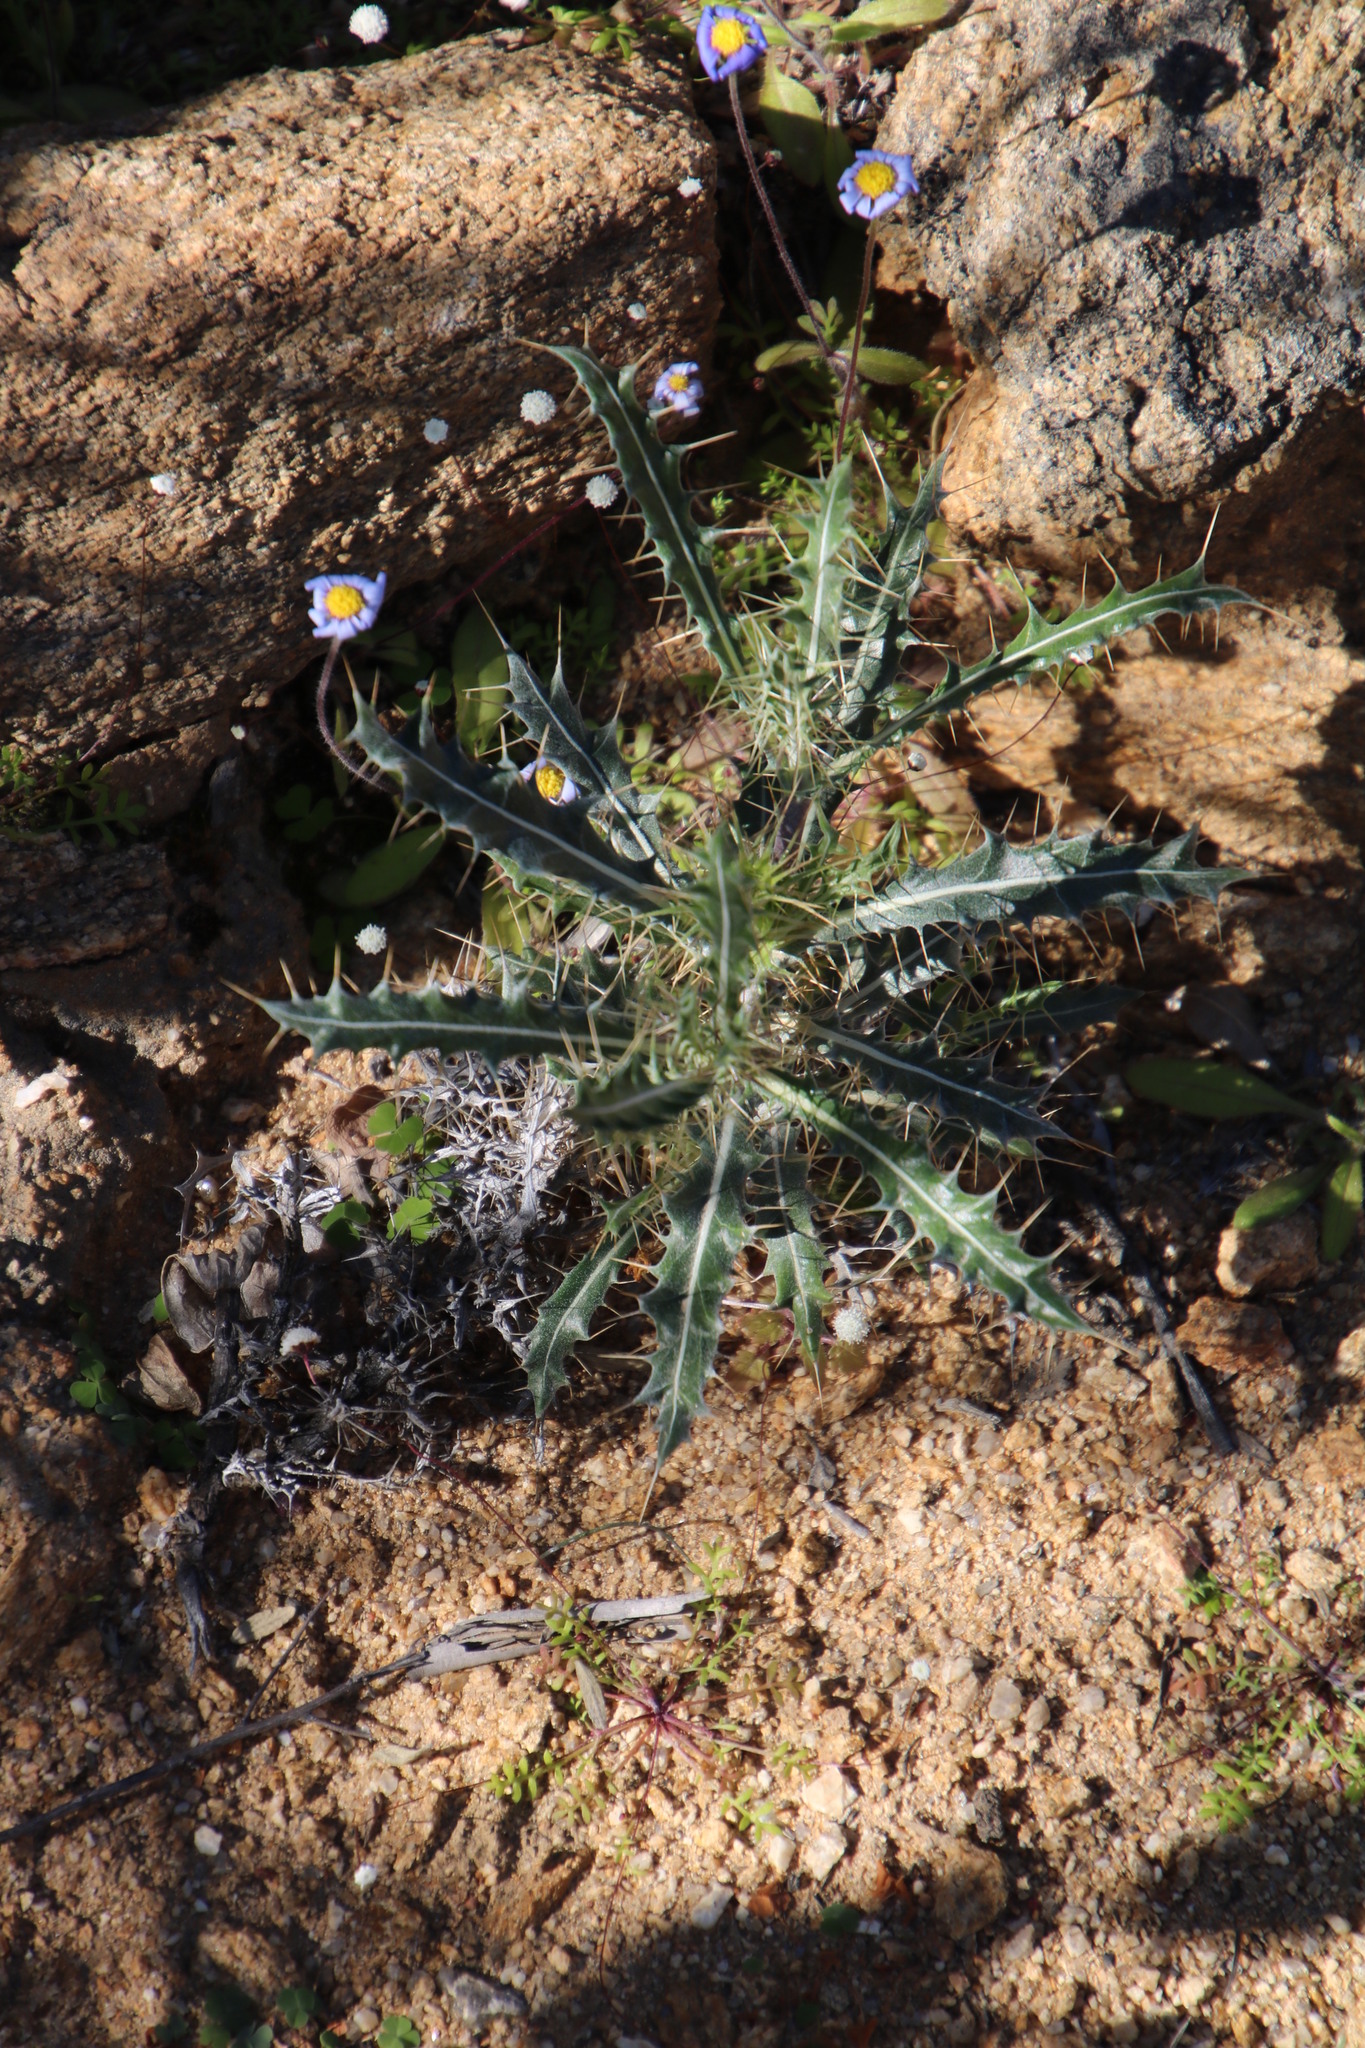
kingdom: Plantae
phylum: Tracheophyta
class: Magnoliopsida
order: Lamiales
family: Acanthaceae
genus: Acanthopsis
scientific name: Acanthopsis horrida
